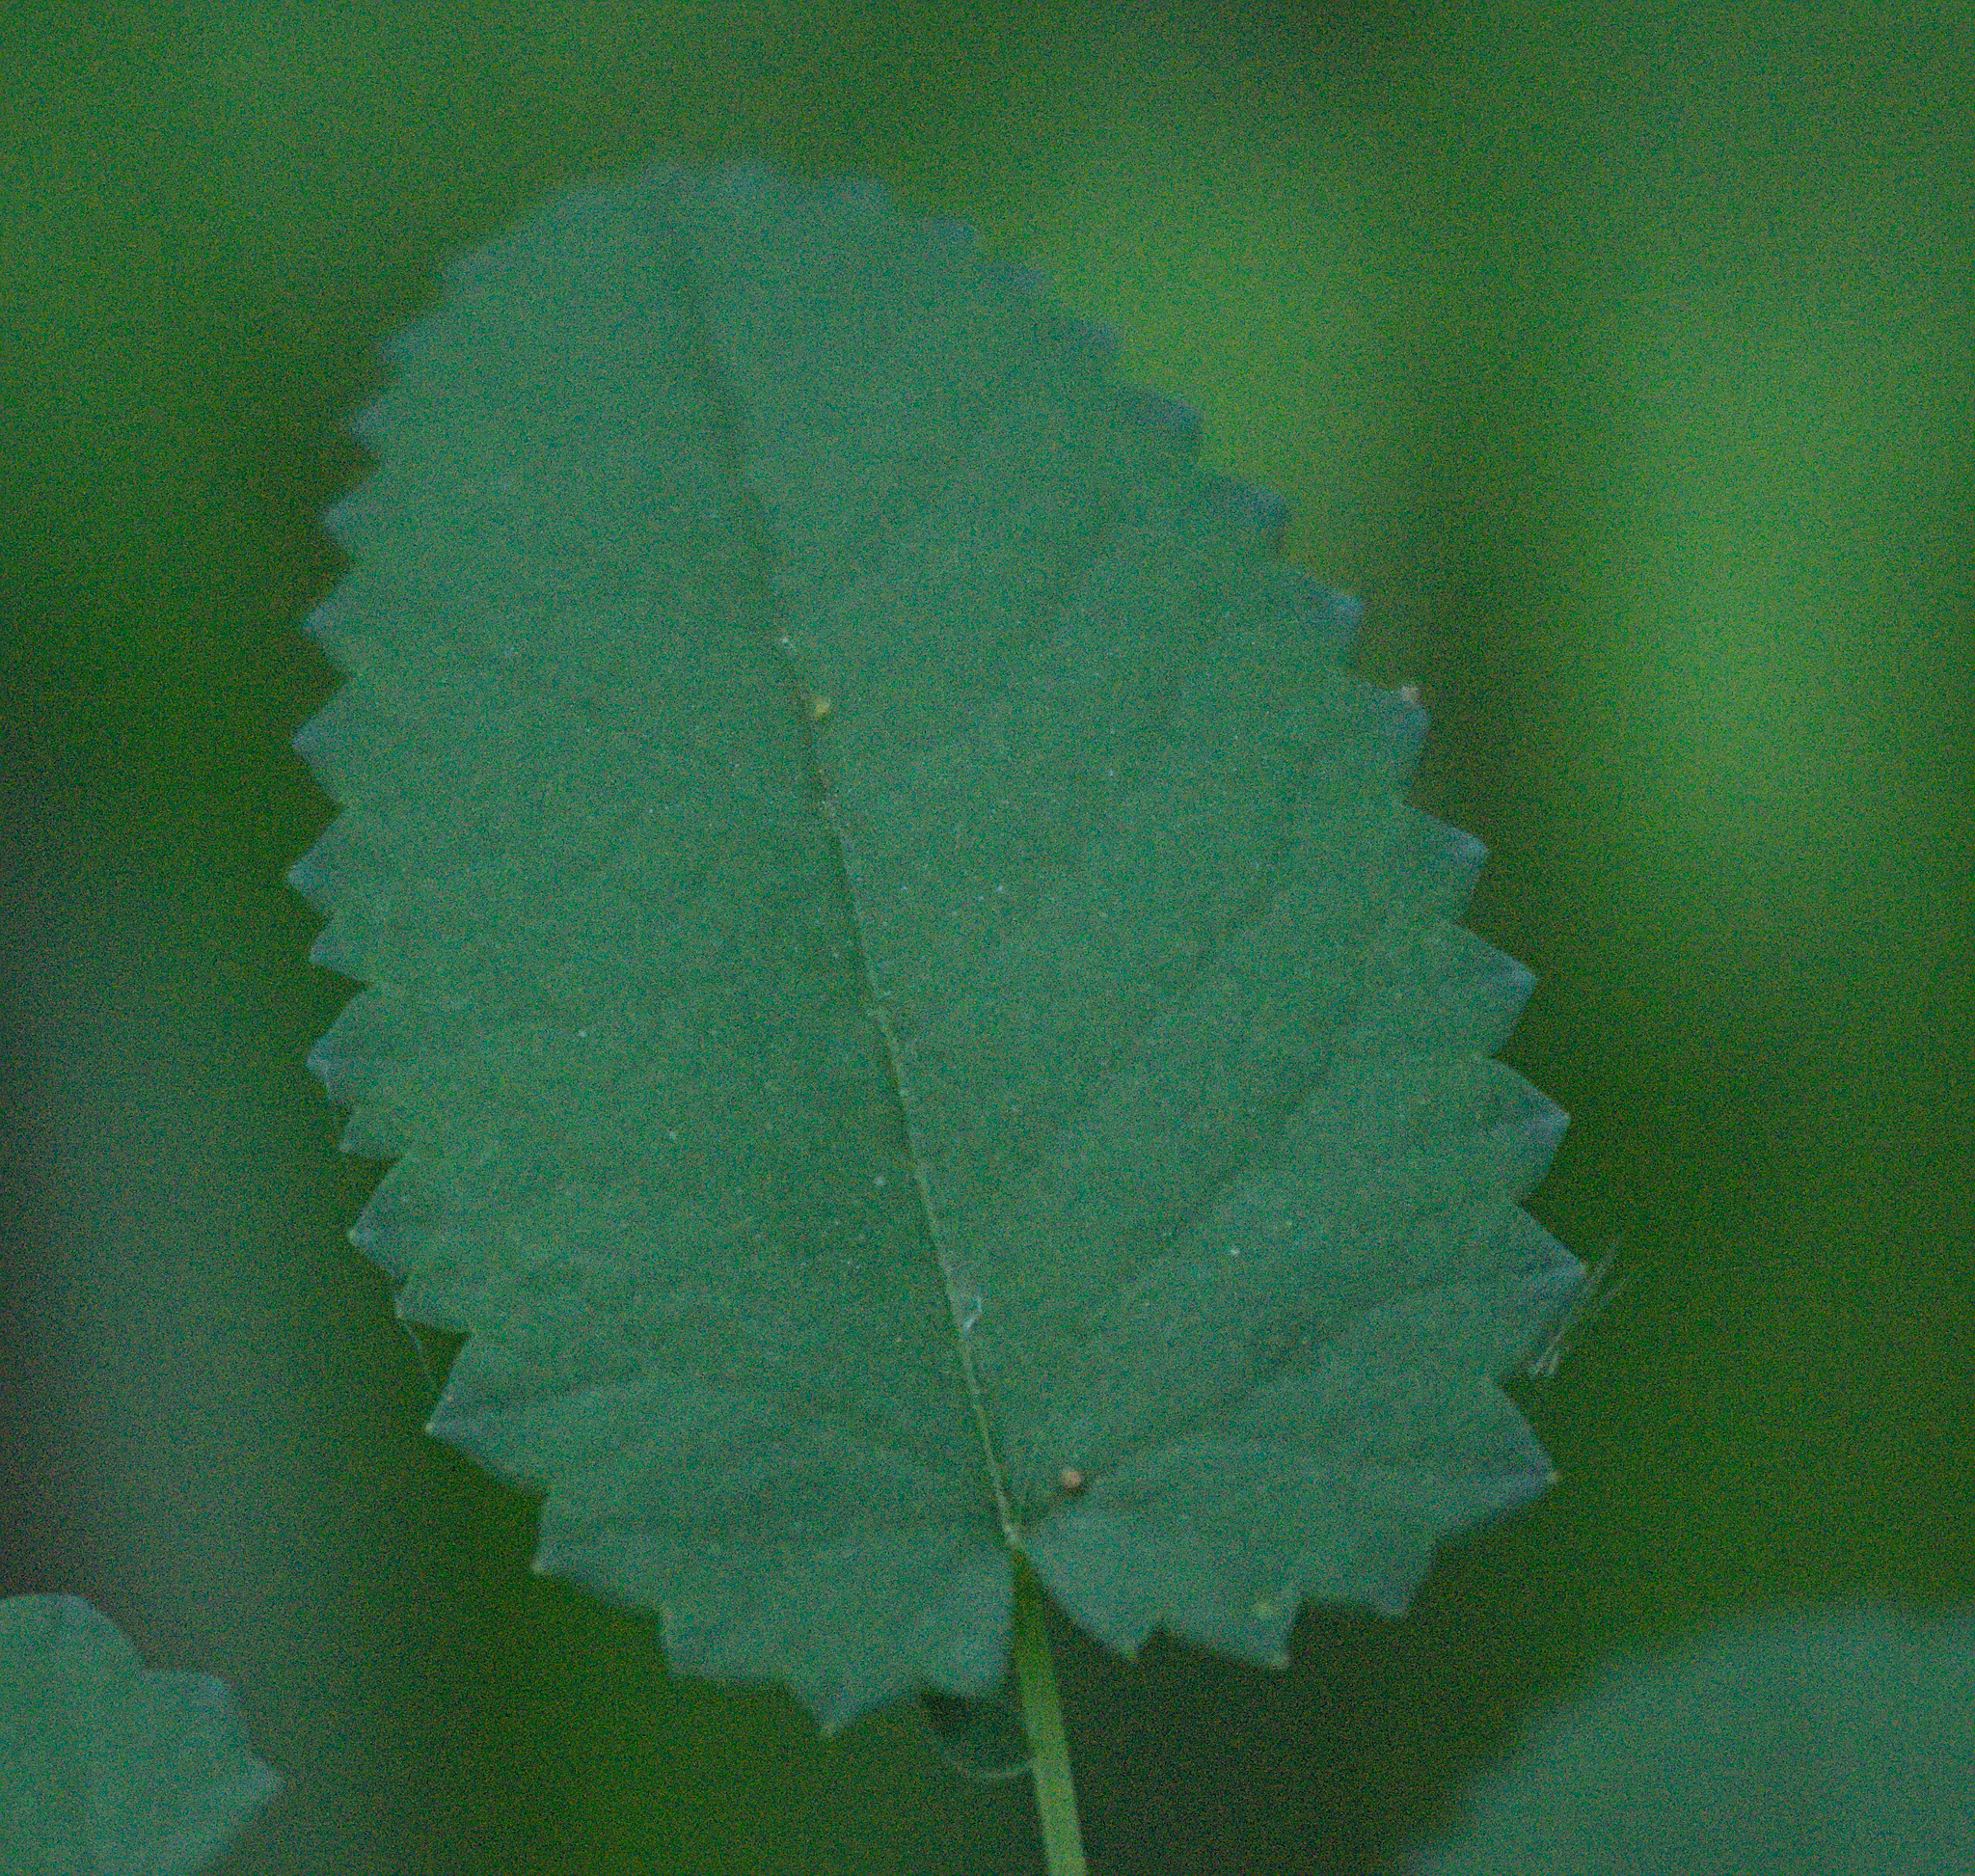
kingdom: Plantae
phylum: Tracheophyta
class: Magnoliopsida
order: Rosales
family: Rosaceae
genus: Sanguisorba
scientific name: Sanguisorba officinalis
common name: Great burnet
